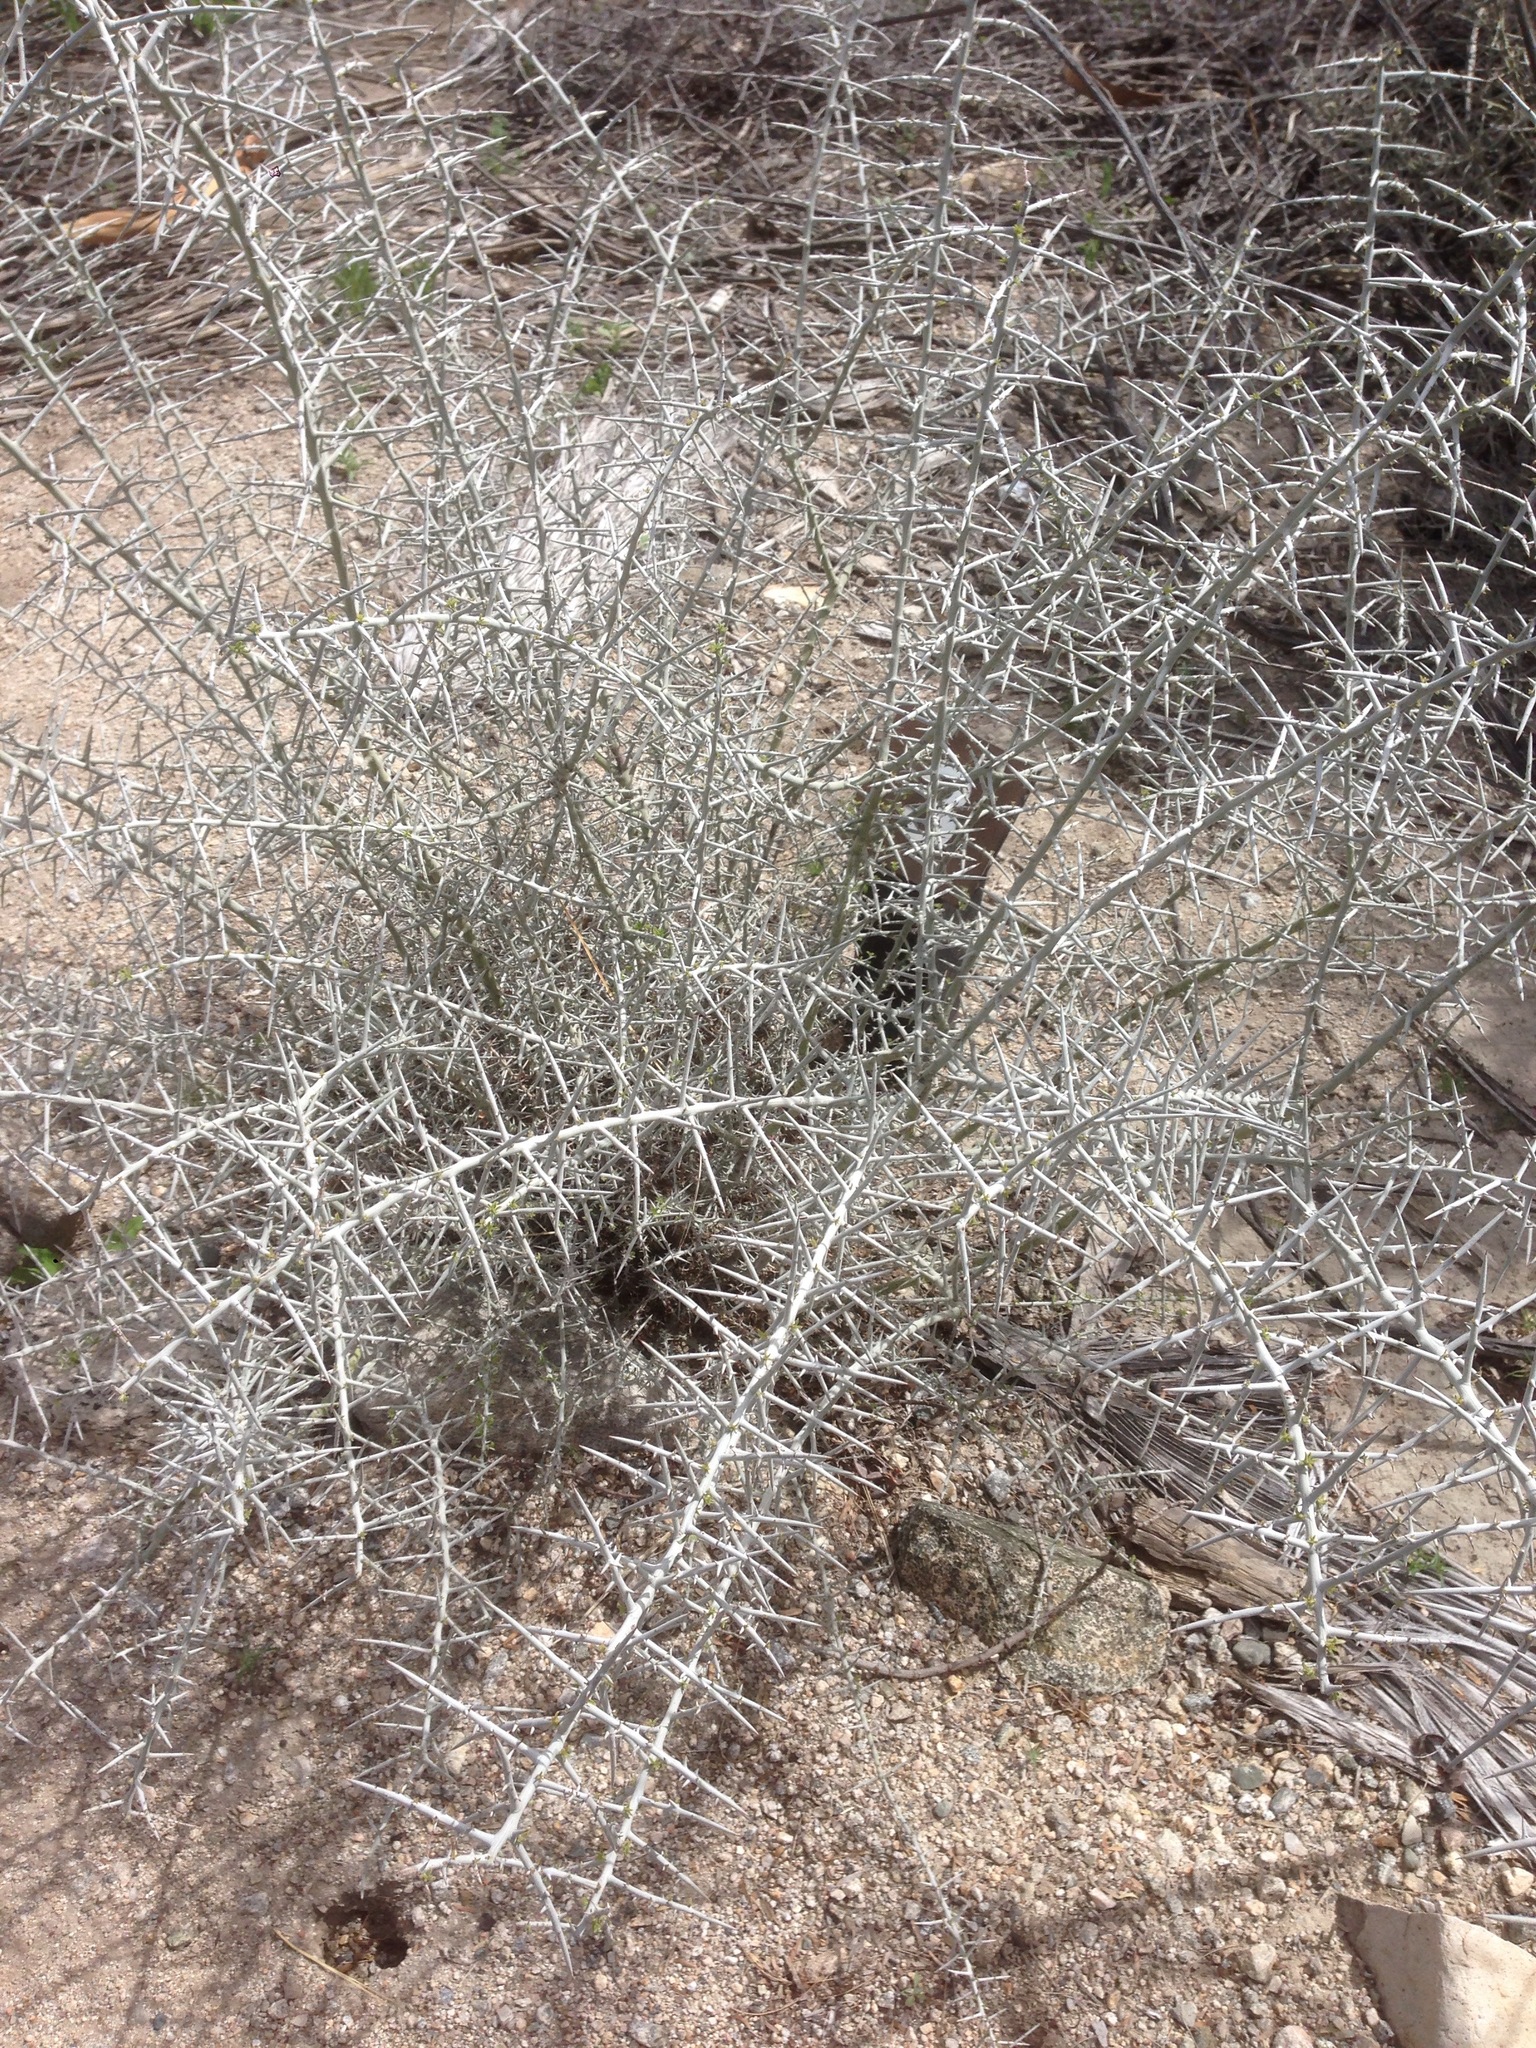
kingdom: Plantae
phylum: Tracheophyta
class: Magnoliopsida
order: Rosales
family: Rhamnaceae
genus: Sarcomphalus
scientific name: Sarcomphalus obtusifolius
